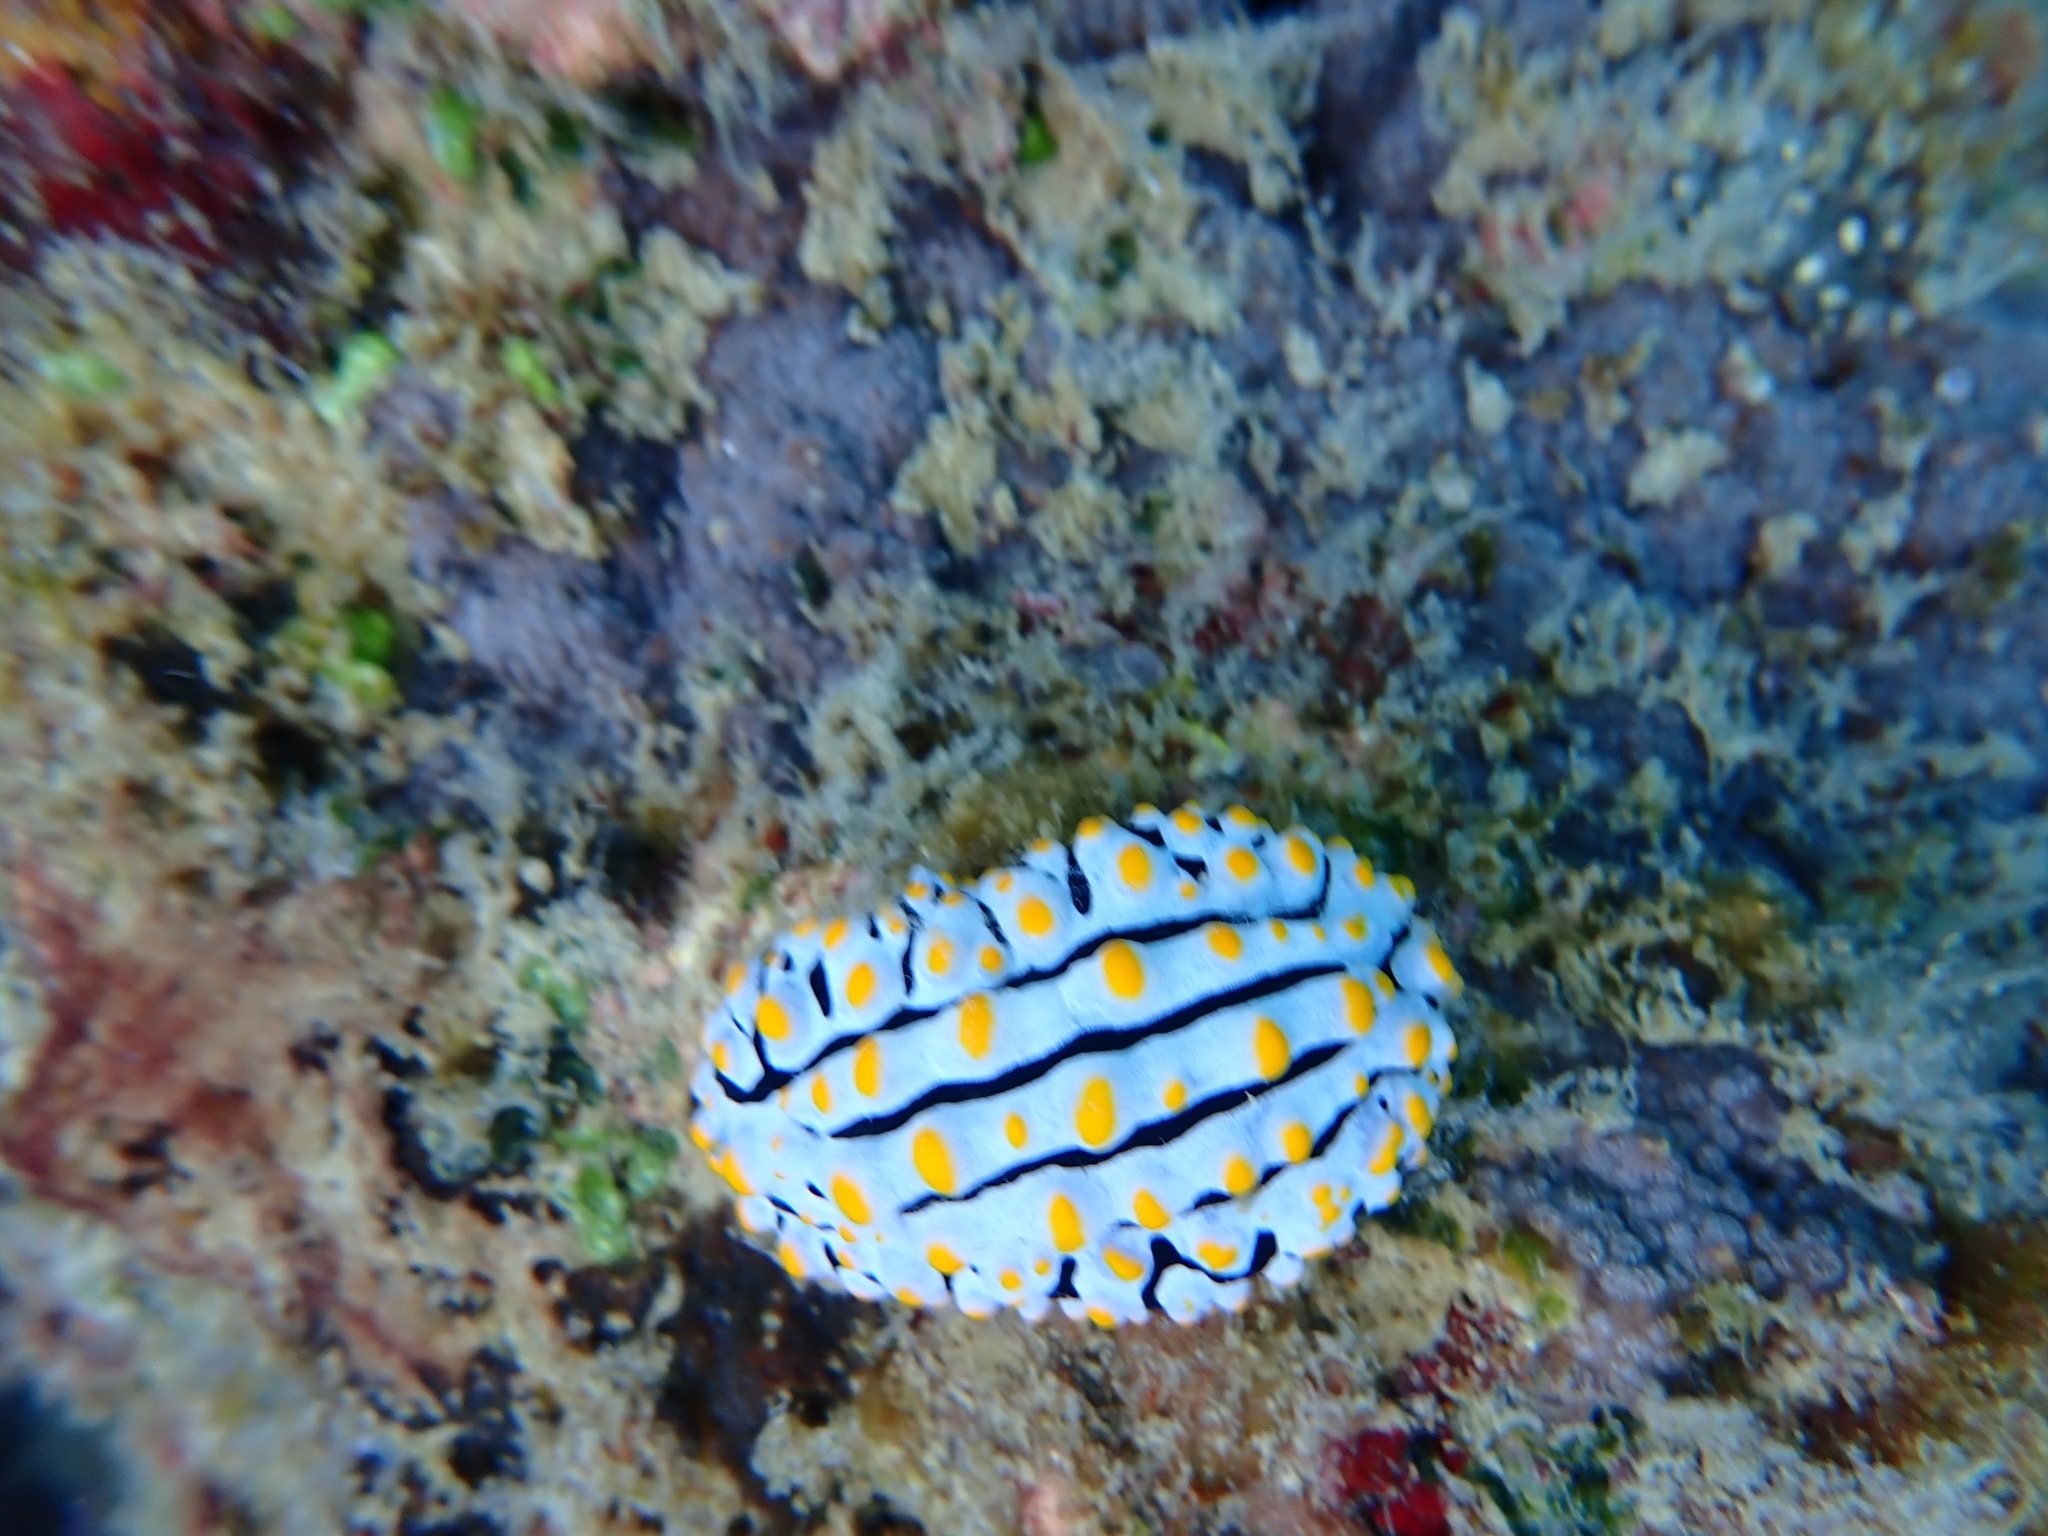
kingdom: Animalia
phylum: Mollusca
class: Gastropoda
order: Nudibranchia
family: Phyllidiidae
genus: Phyllidia
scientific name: Phyllidia varicosa
